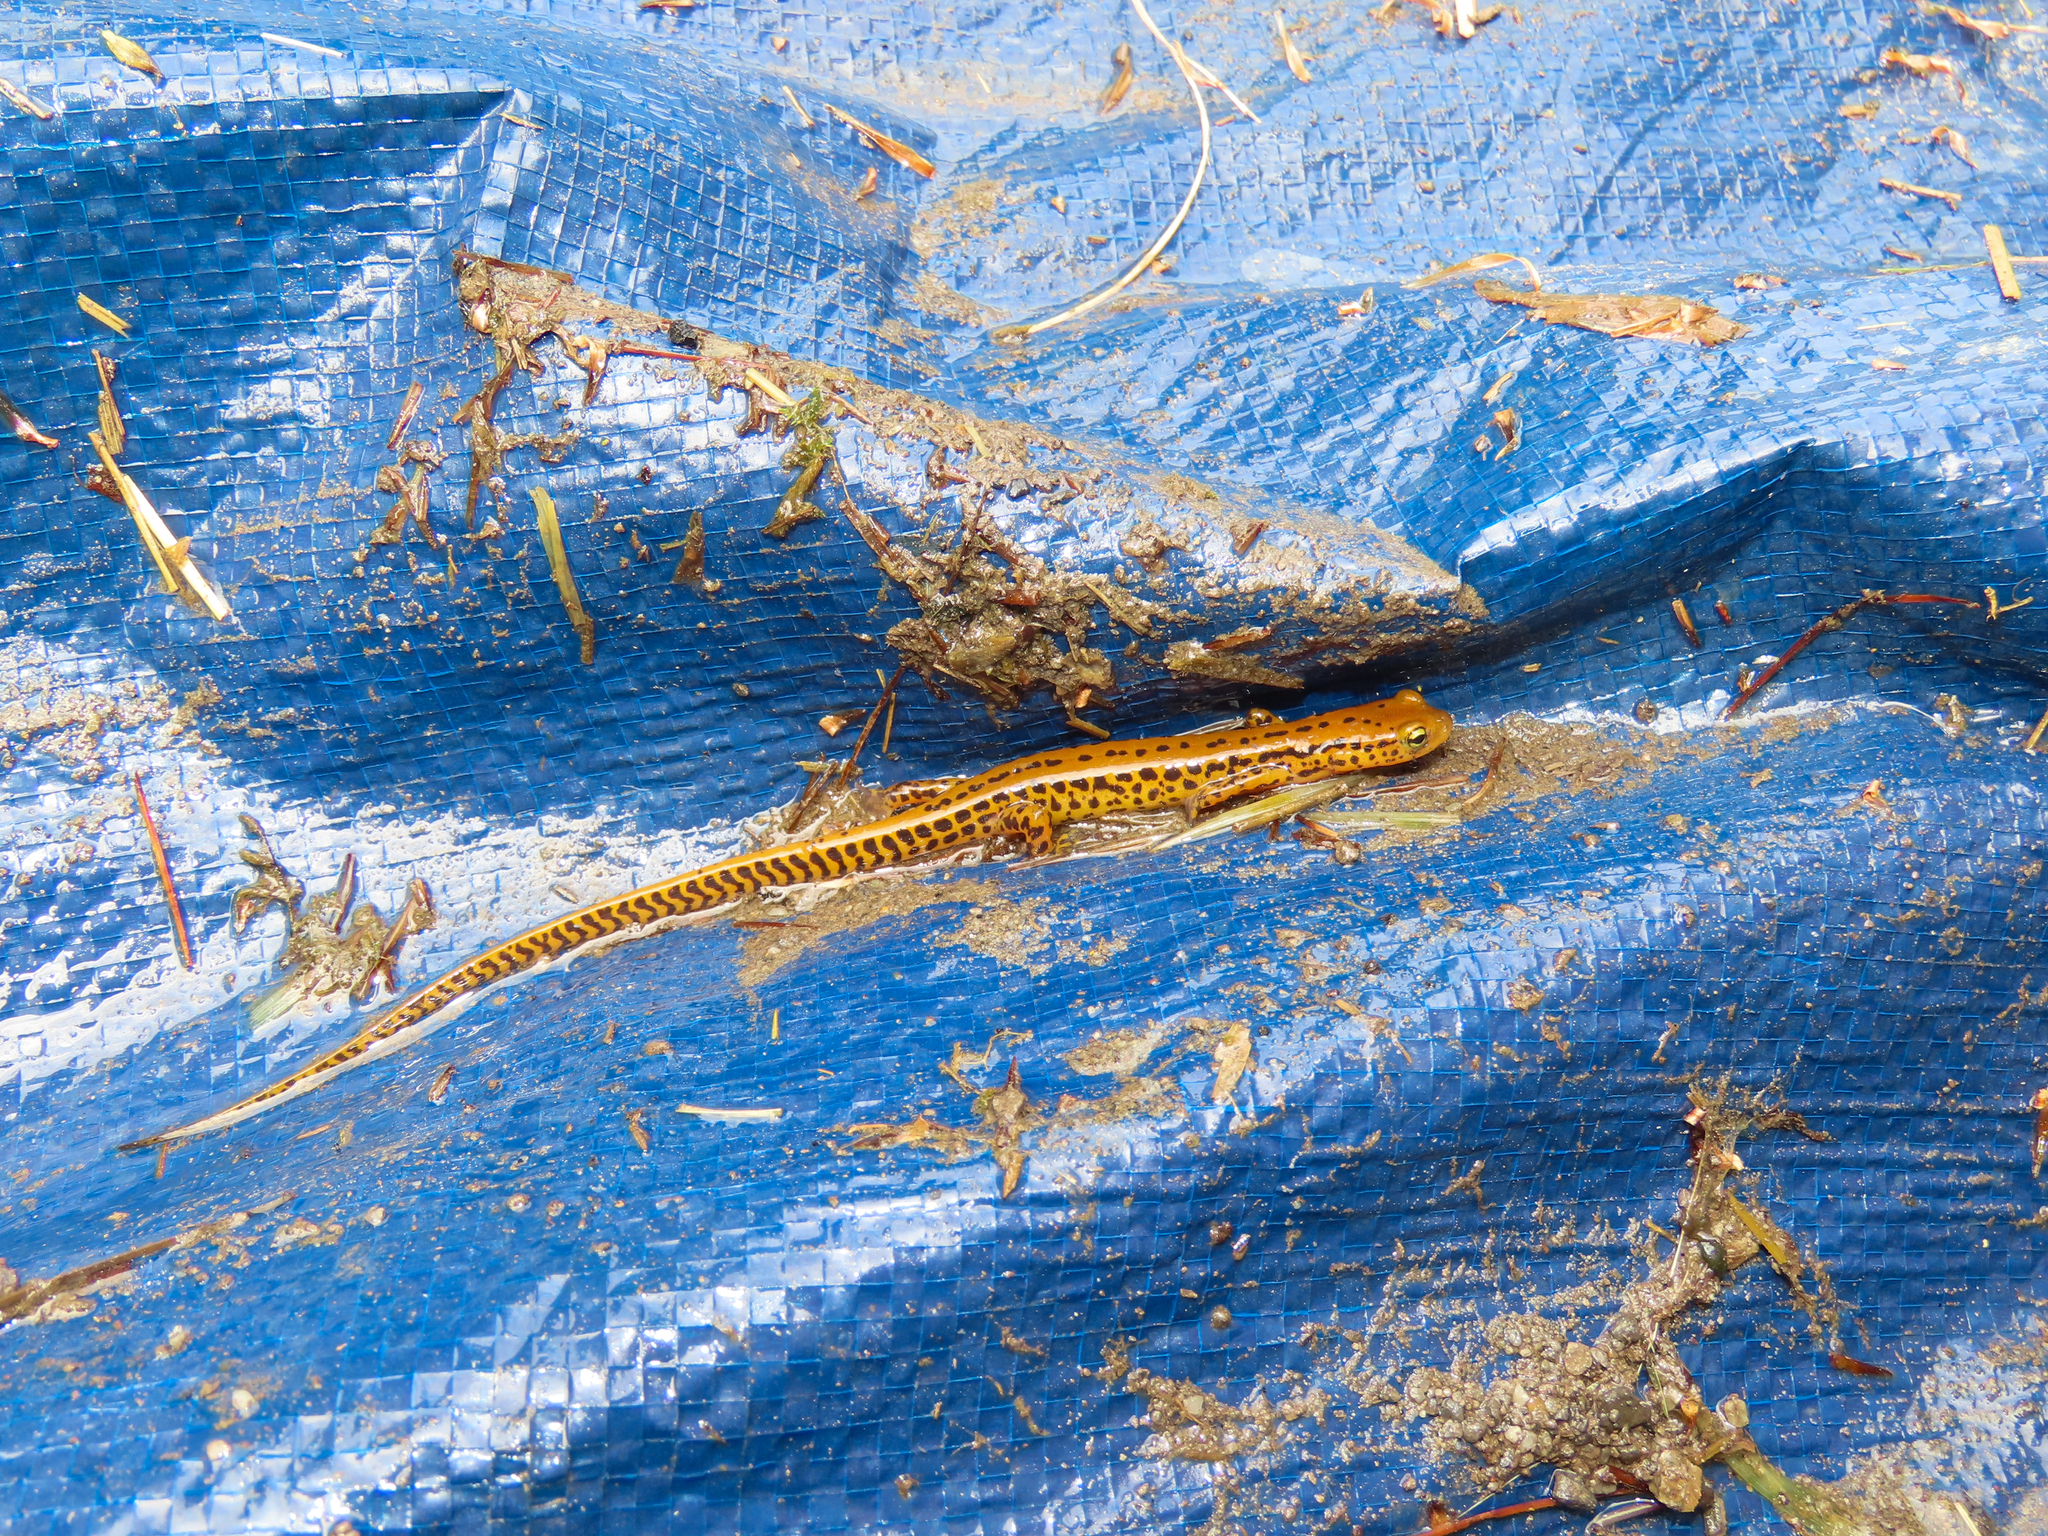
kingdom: Animalia
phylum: Chordata
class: Amphibia
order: Caudata
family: Plethodontidae
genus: Eurycea
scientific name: Eurycea longicauda
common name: Long-tailed salamander
